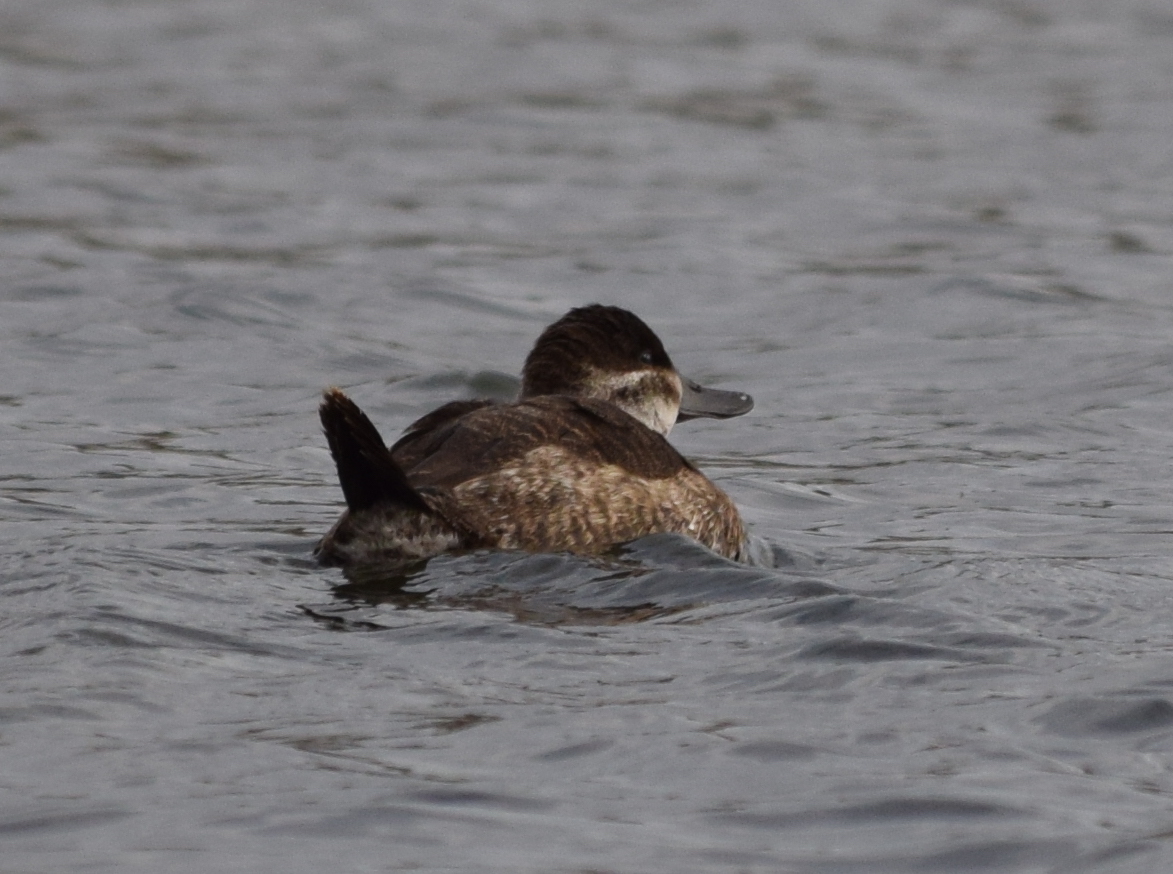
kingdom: Animalia
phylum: Chordata
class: Aves
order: Anseriformes
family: Anatidae
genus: Oxyura
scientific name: Oxyura jamaicensis
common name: Ruddy duck
